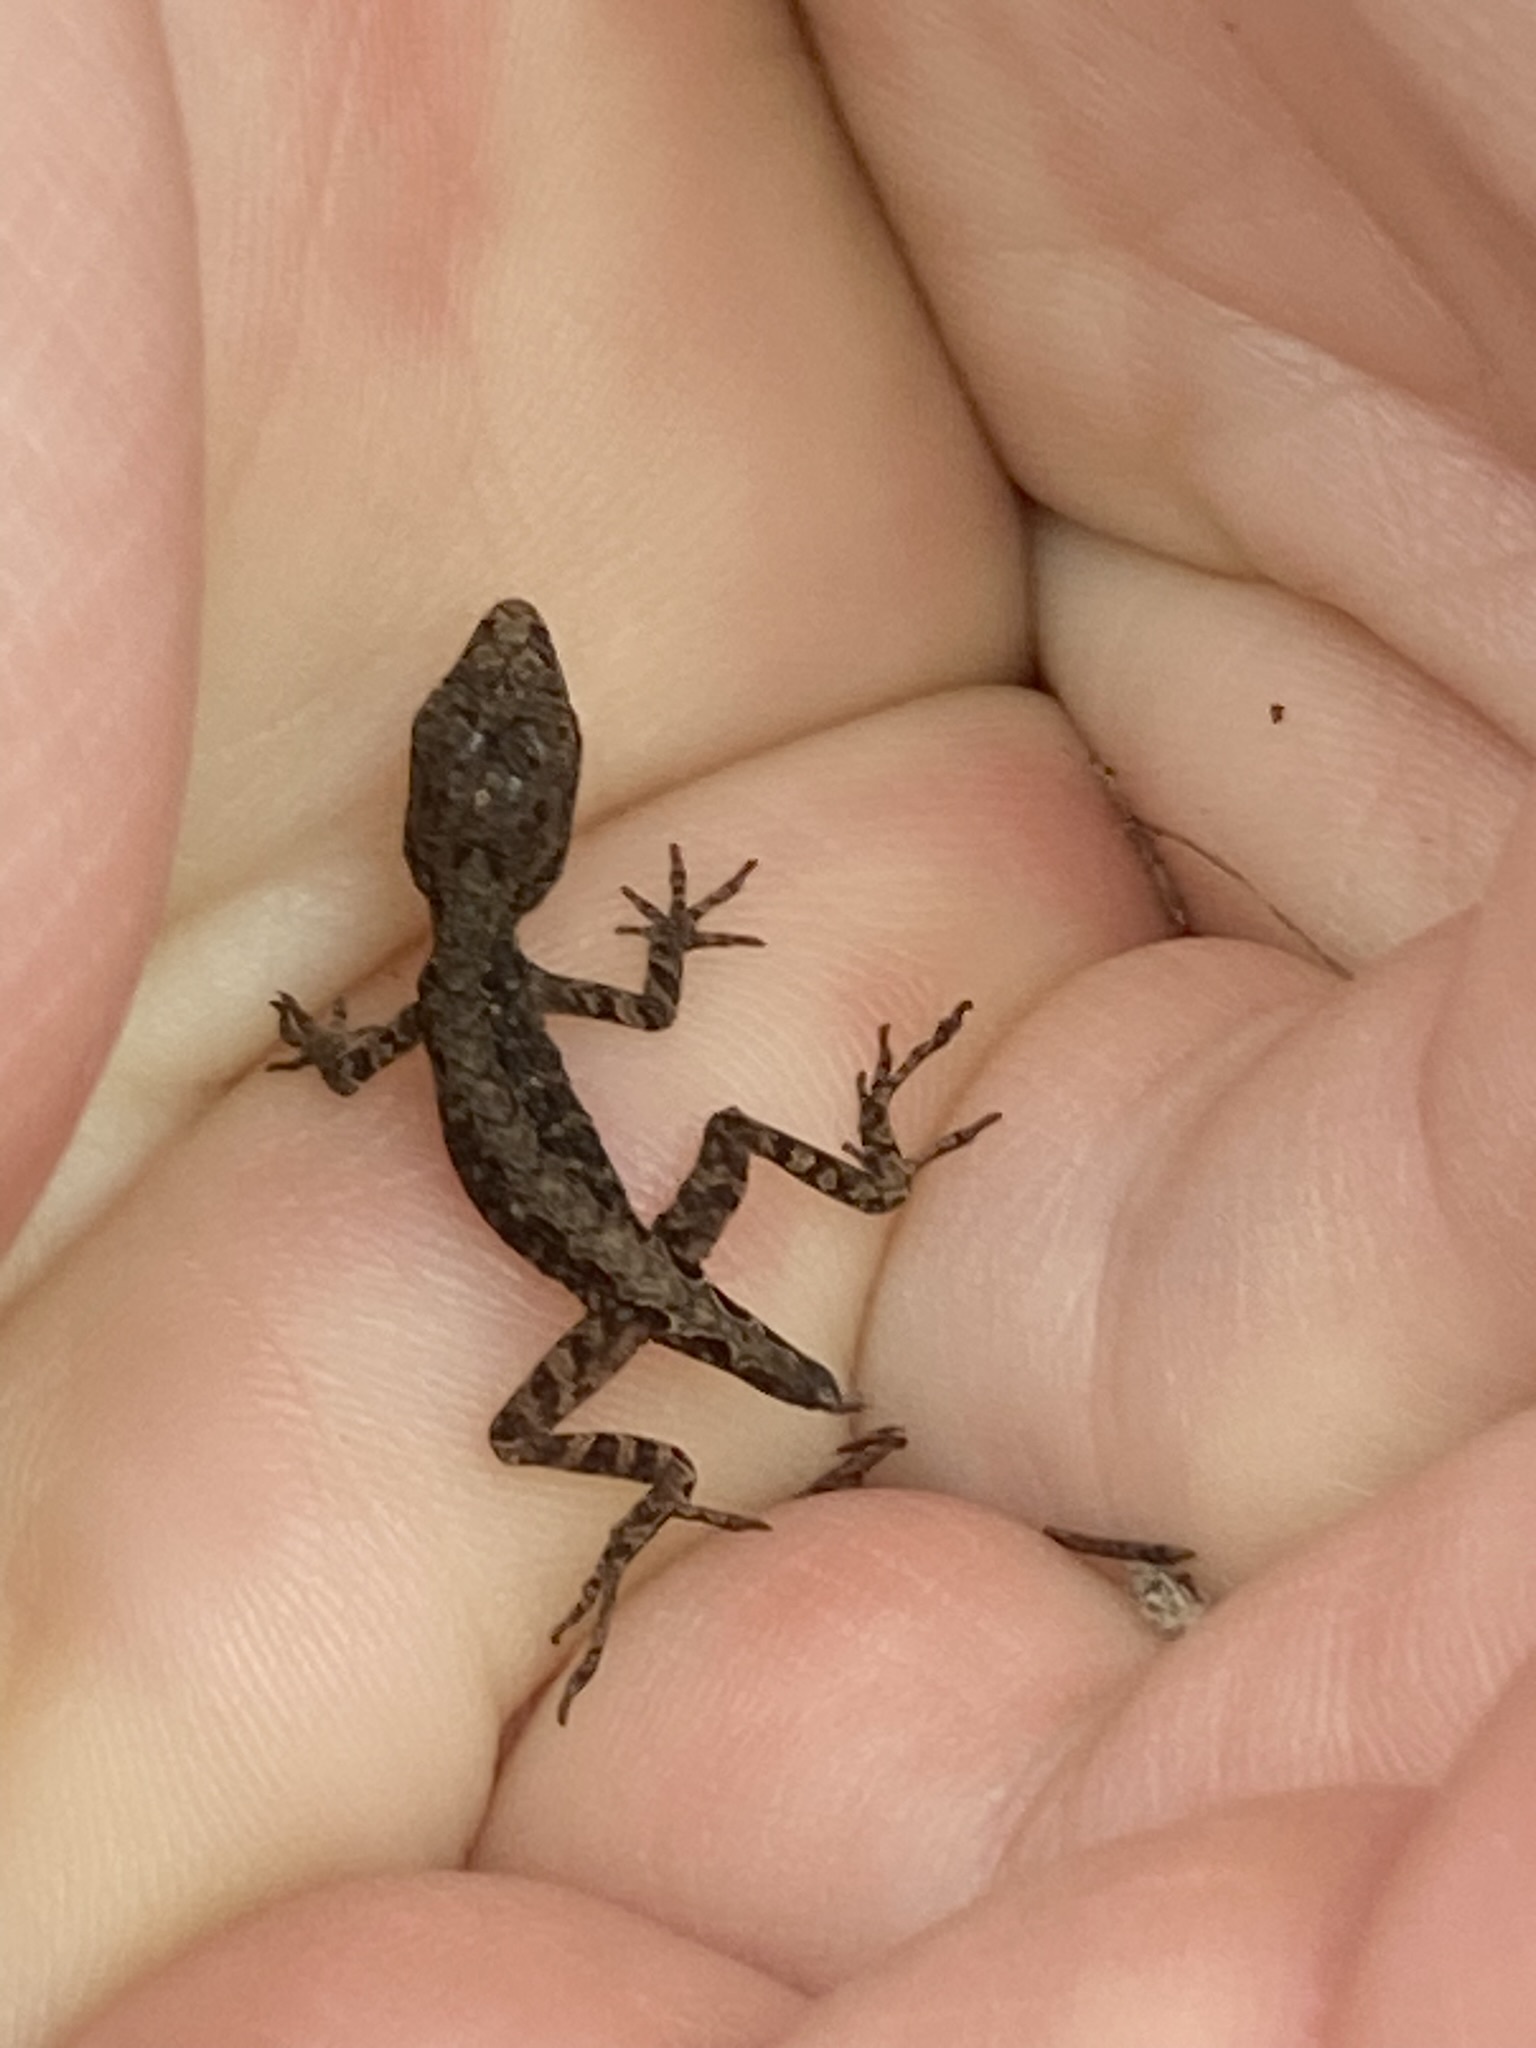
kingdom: Animalia
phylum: Chordata
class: Squamata
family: Dactyloidae
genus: Anolis
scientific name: Anolis sagrei
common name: Brown anole
